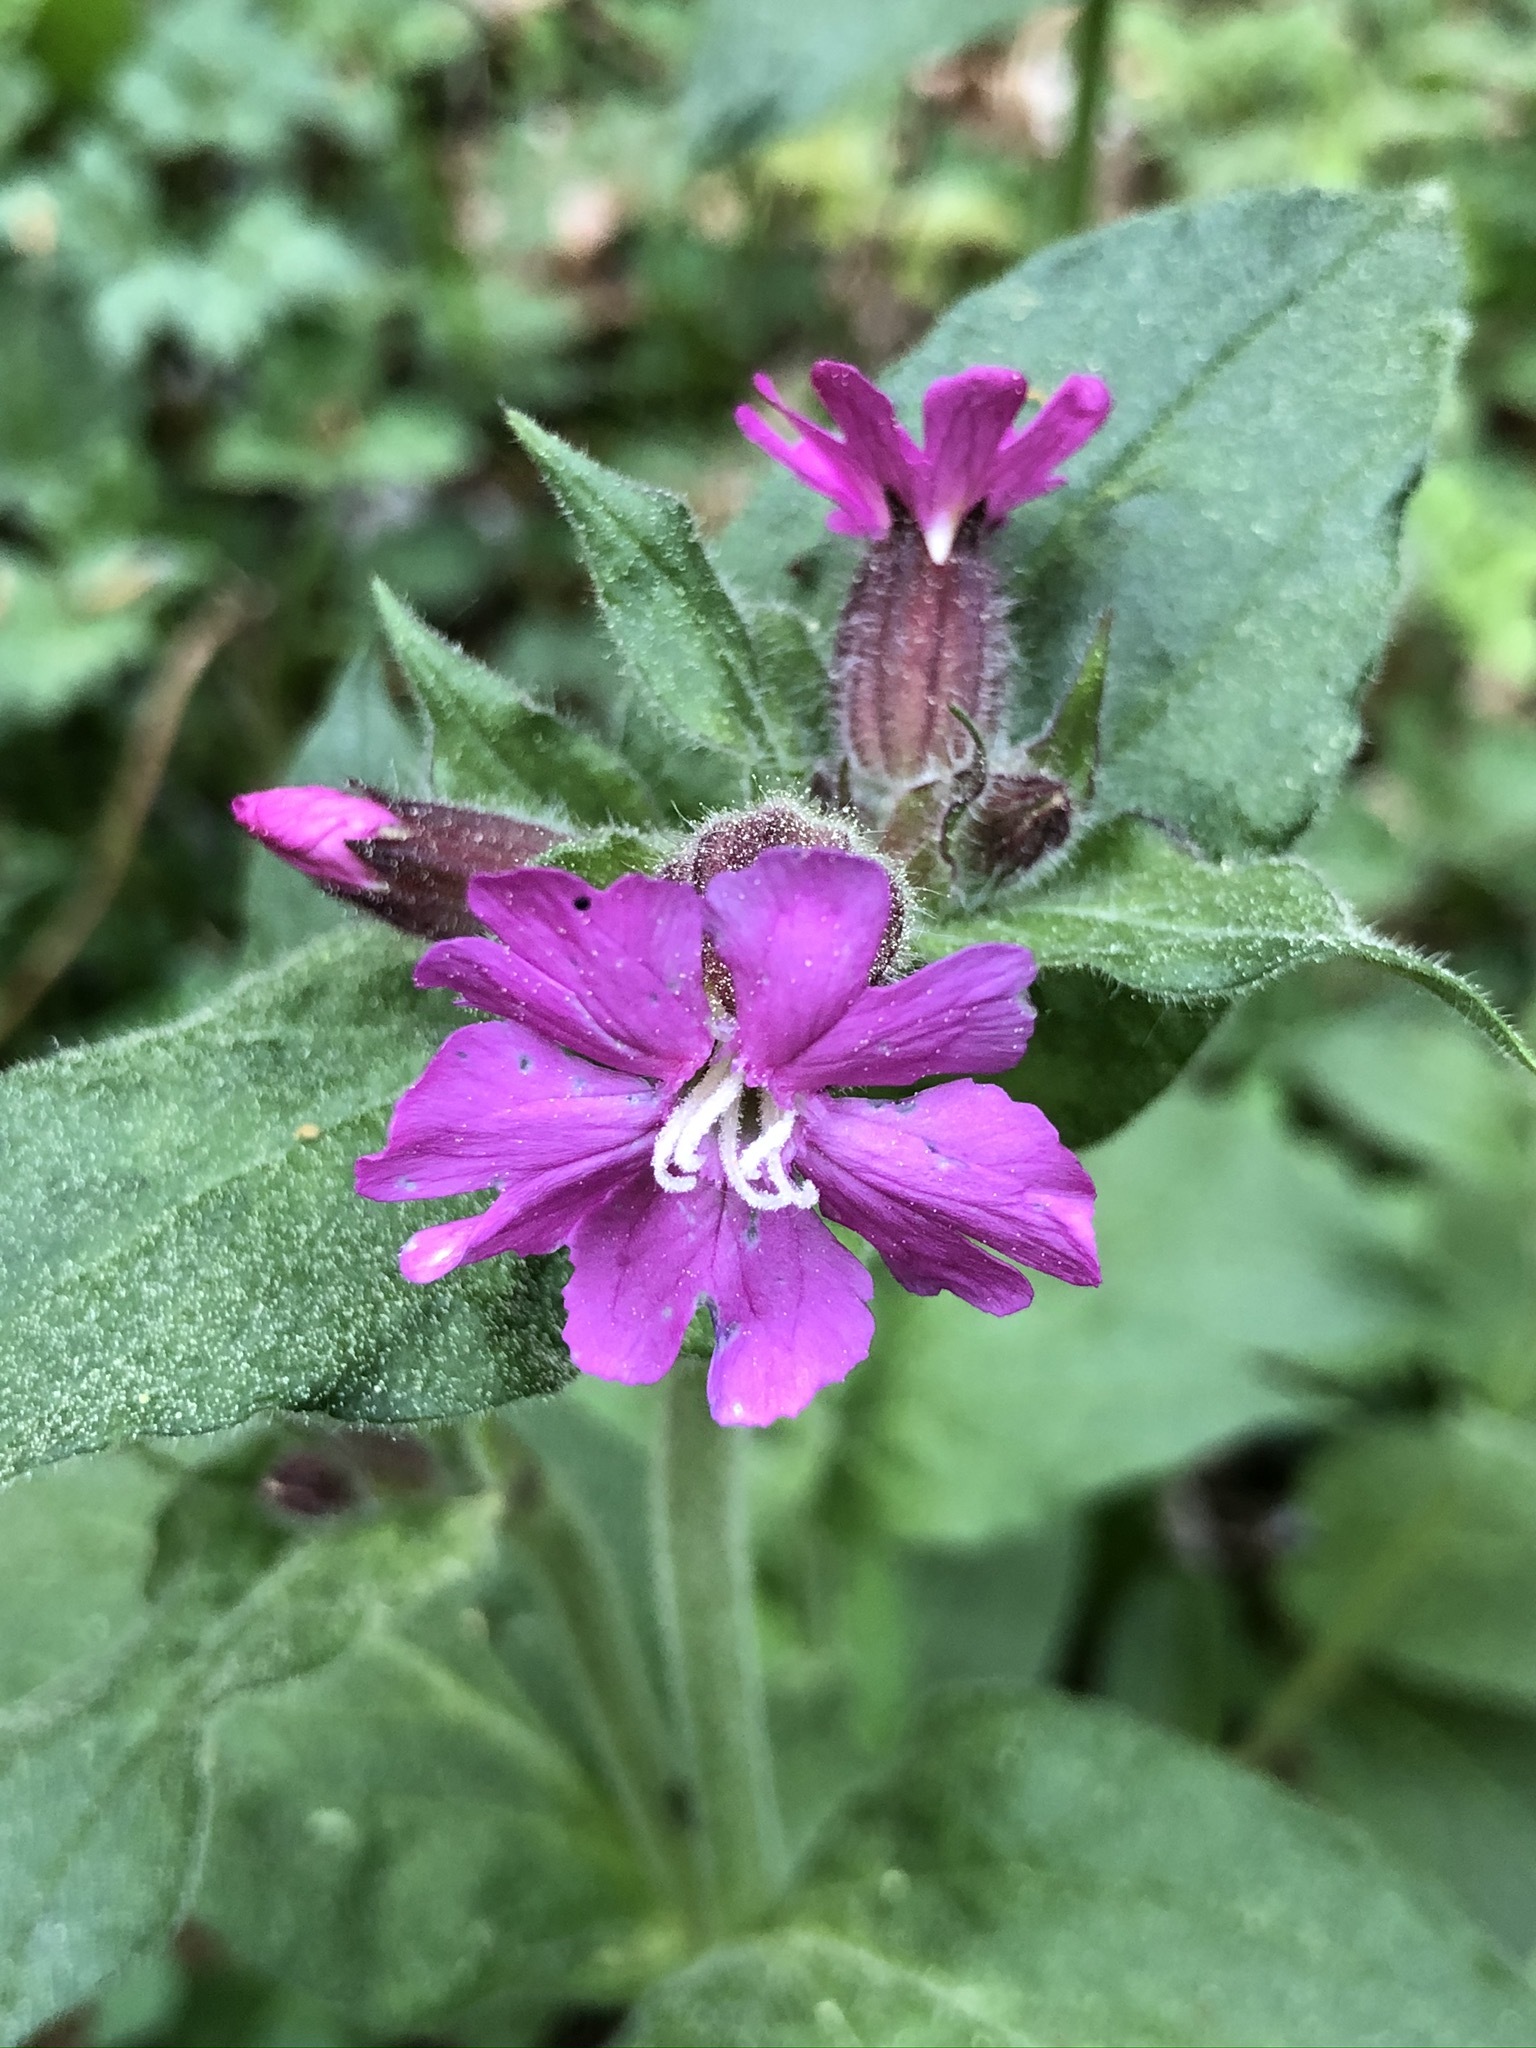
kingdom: Plantae
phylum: Tracheophyta
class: Magnoliopsida
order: Caryophyllales
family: Caryophyllaceae
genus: Silene
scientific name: Silene dioica
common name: Red campion
